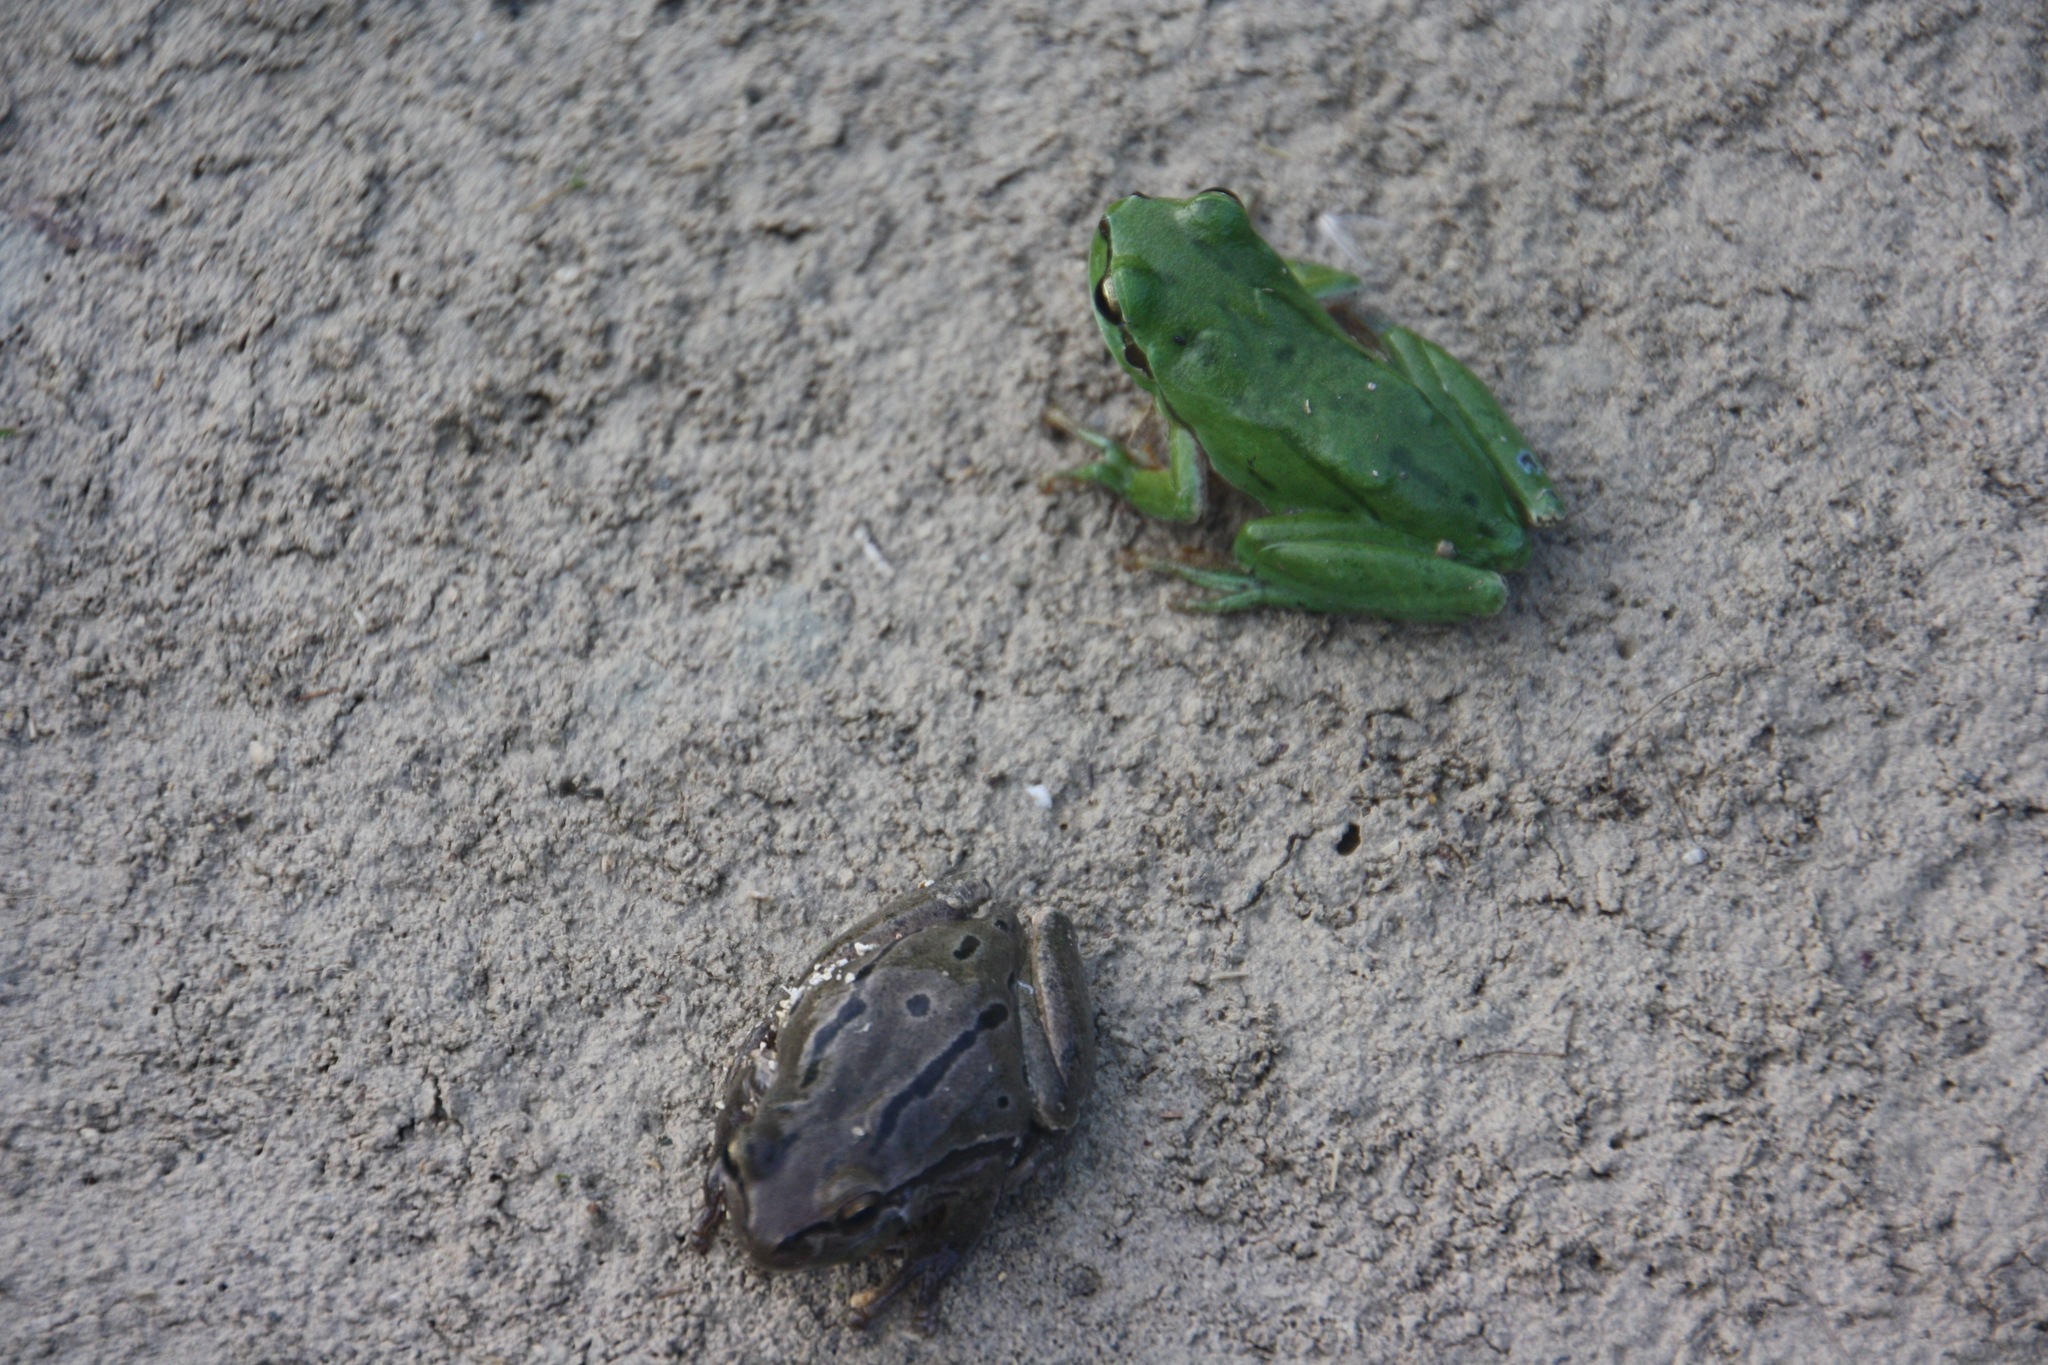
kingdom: Animalia
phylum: Chordata
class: Amphibia
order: Anura
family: Hylidae
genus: Hyla
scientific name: Hyla savignyi
